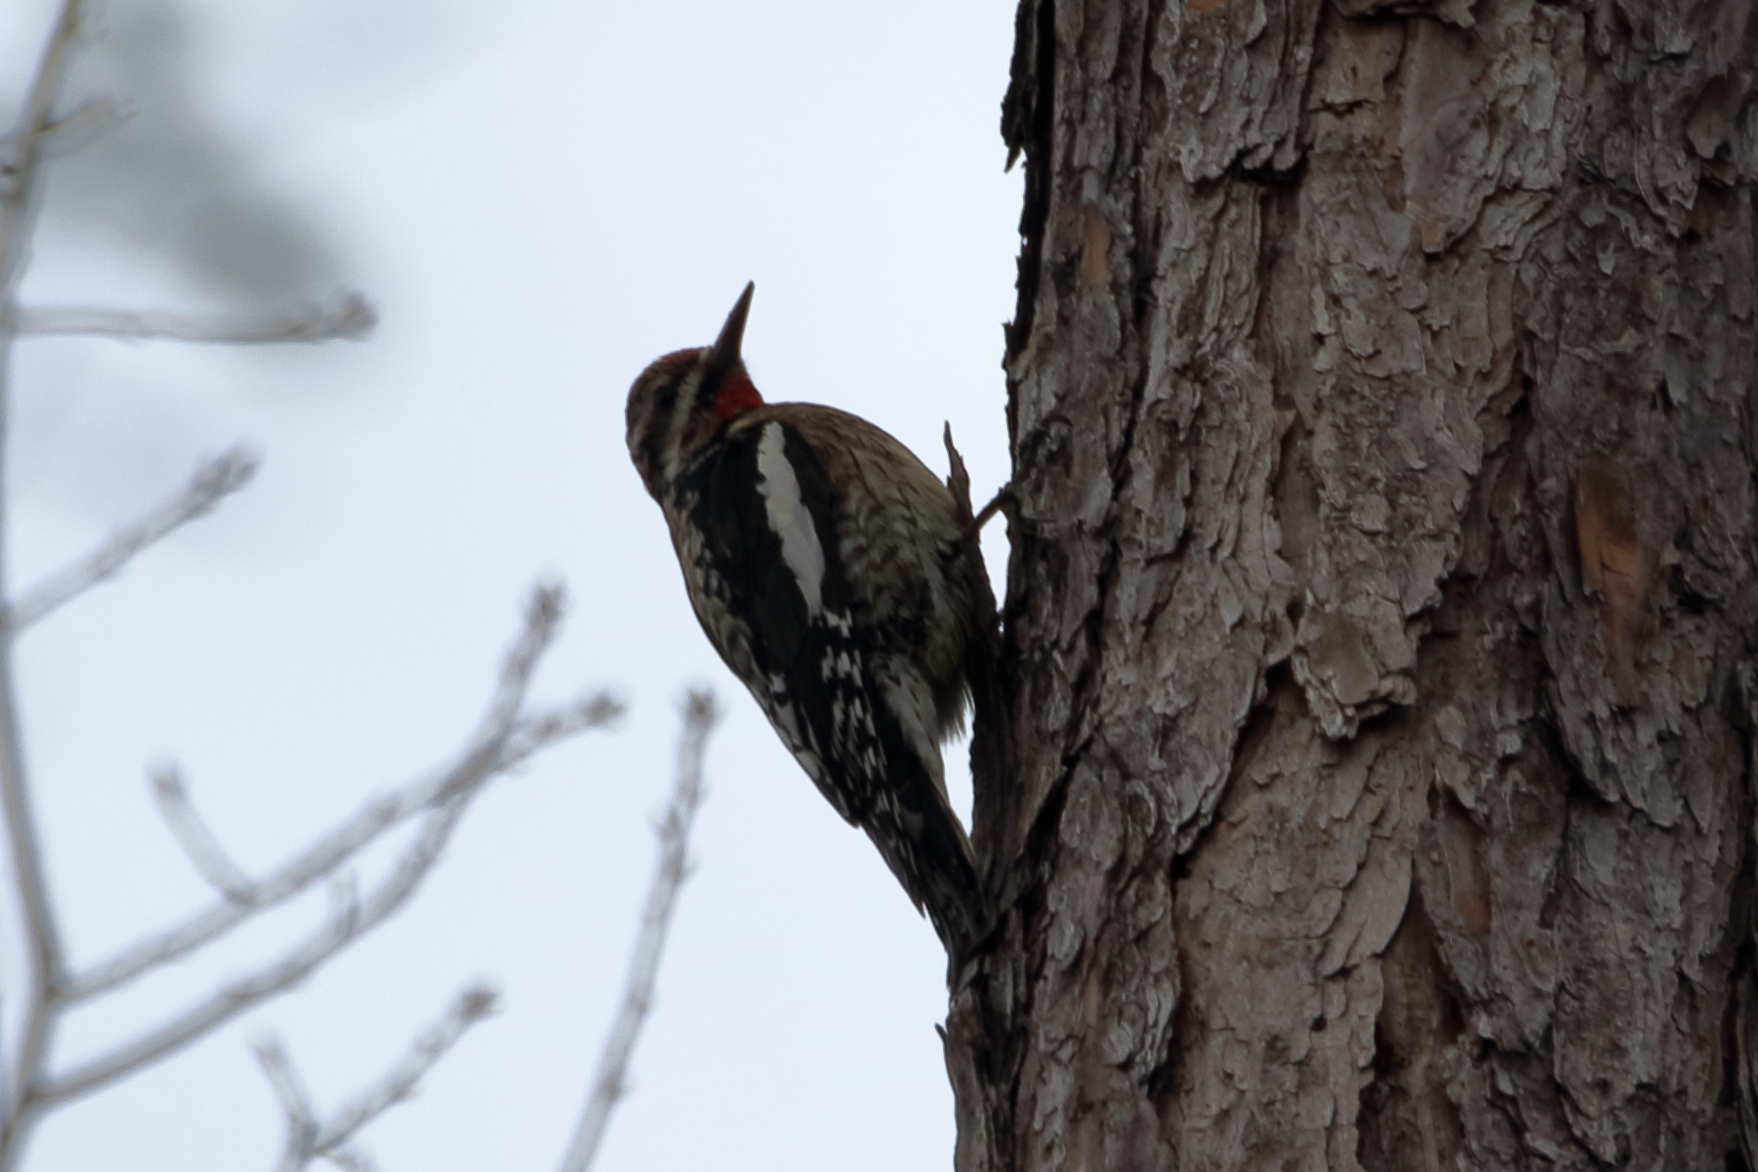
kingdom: Animalia
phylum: Chordata
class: Aves
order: Piciformes
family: Picidae
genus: Sphyrapicus
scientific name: Sphyrapicus varius
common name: Yellow-bellied sapsucker
